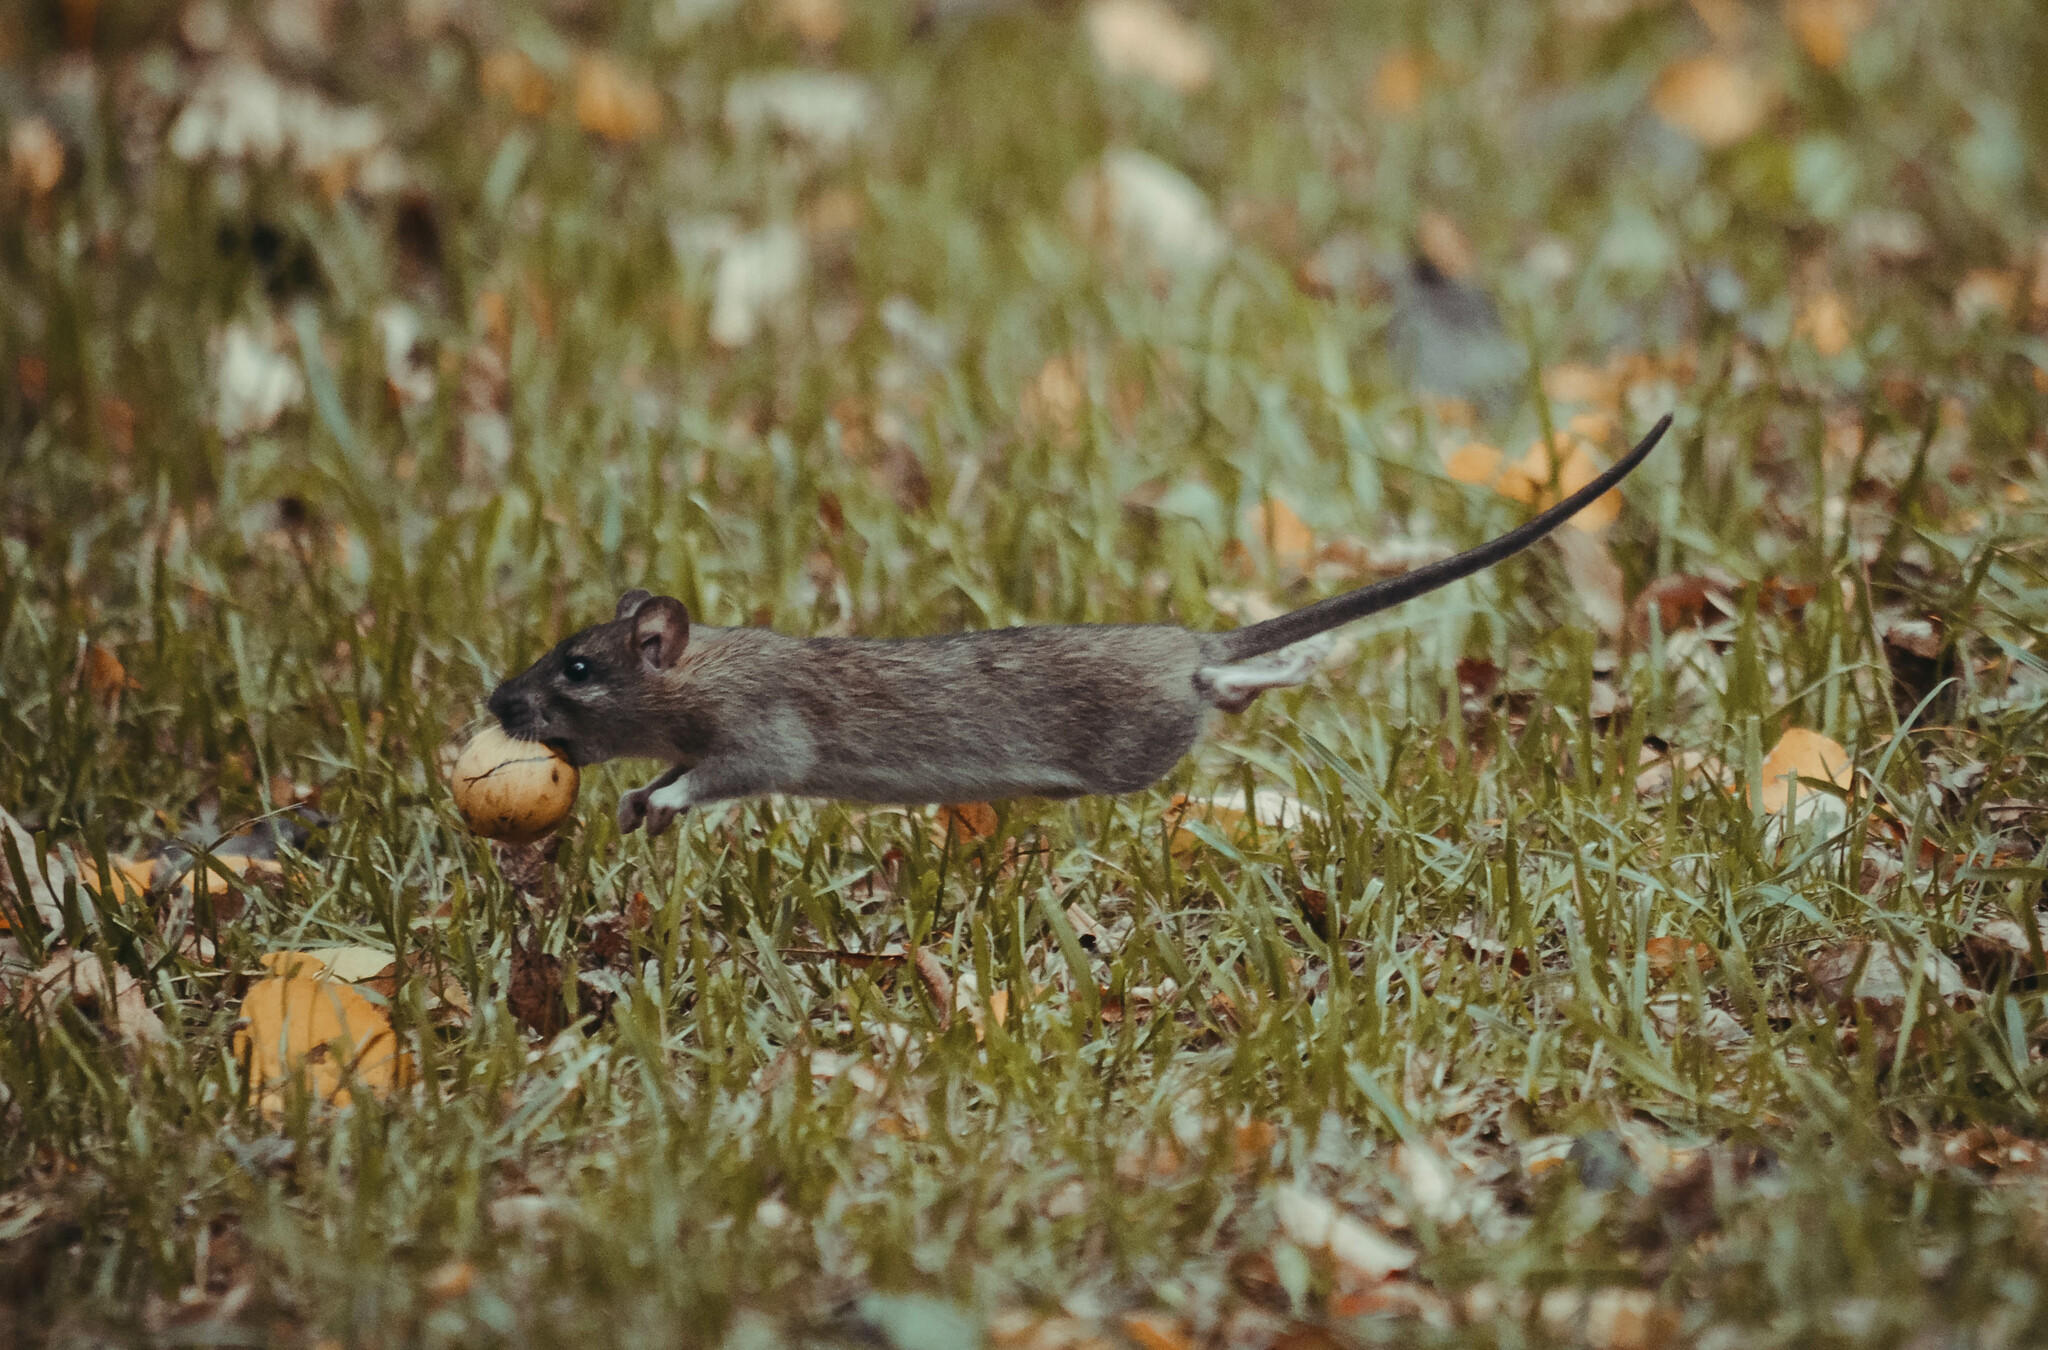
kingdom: Animalia
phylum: Chordata
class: Mammalia
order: Rodentia
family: Muridae
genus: Rattus
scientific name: Rattus norvegicus
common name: Brown rat
